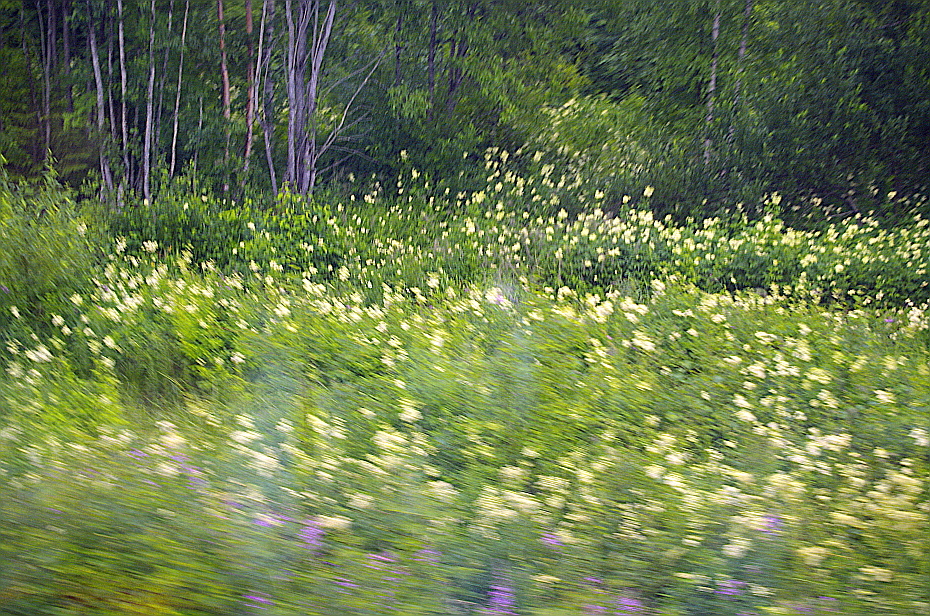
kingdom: Plantae
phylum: Tracheophyta
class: Magnoliopsida
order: Rosales
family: Rosaceae
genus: Filipendula
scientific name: Filipendula ulmaria
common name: Meadowsweet
